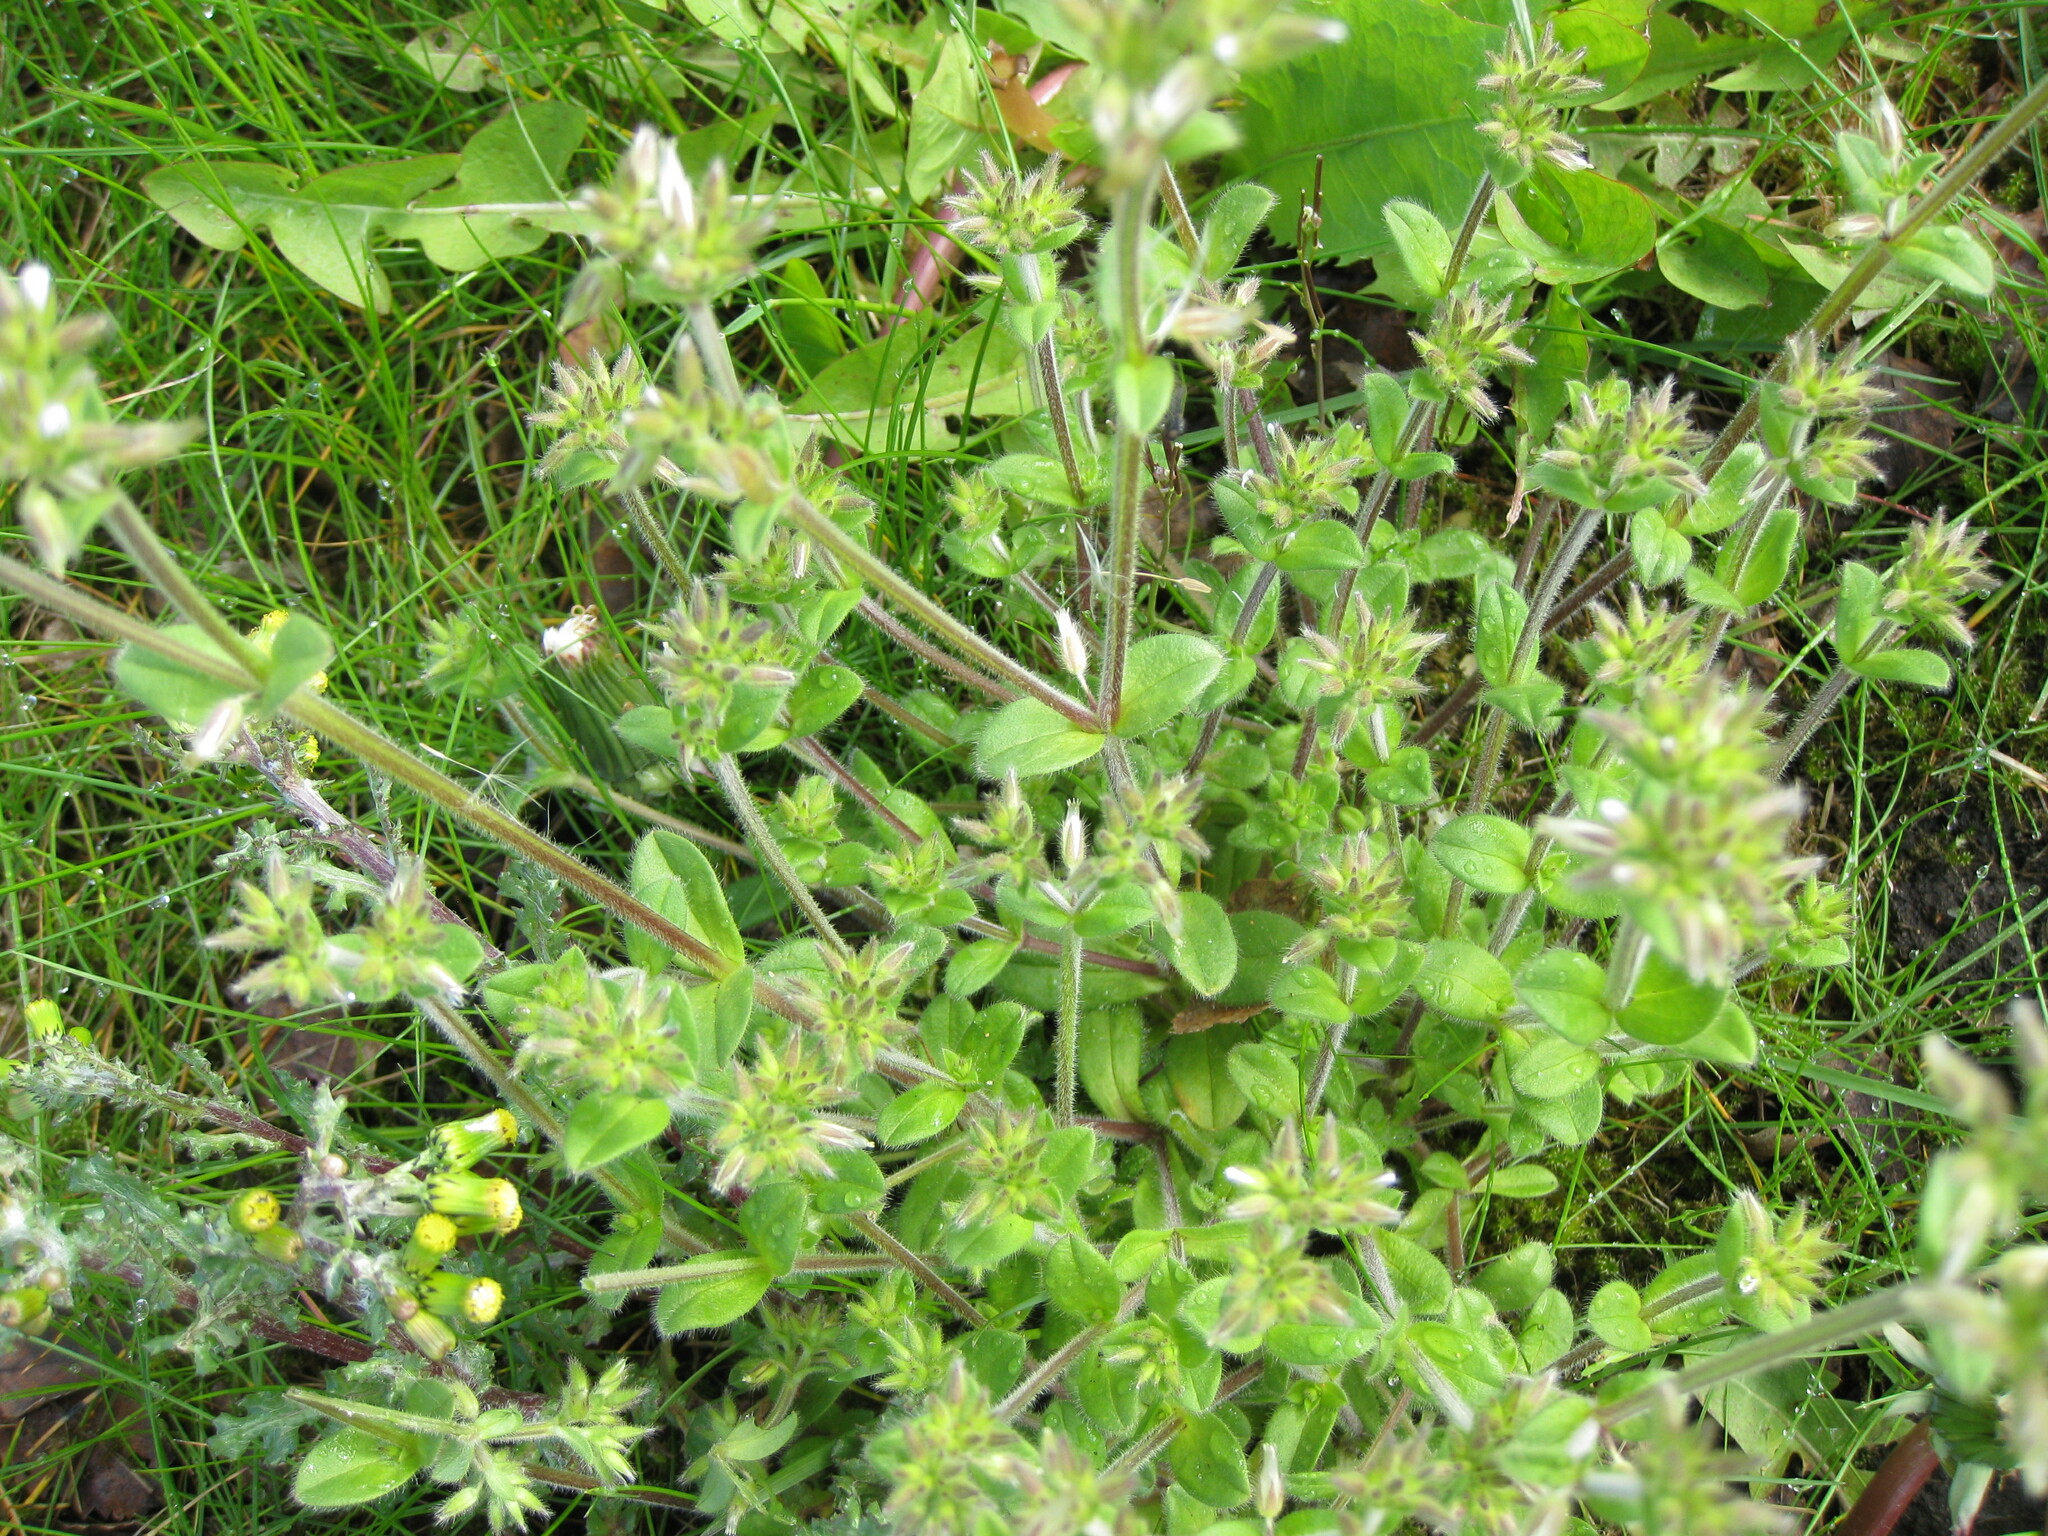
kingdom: Plantae
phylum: Tracheophyta
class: Magnoliopsida
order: Caryophyllales
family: Caryophyllaceae
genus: Cerastium
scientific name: Cerastium glomeratum
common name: Sticky chickweed
